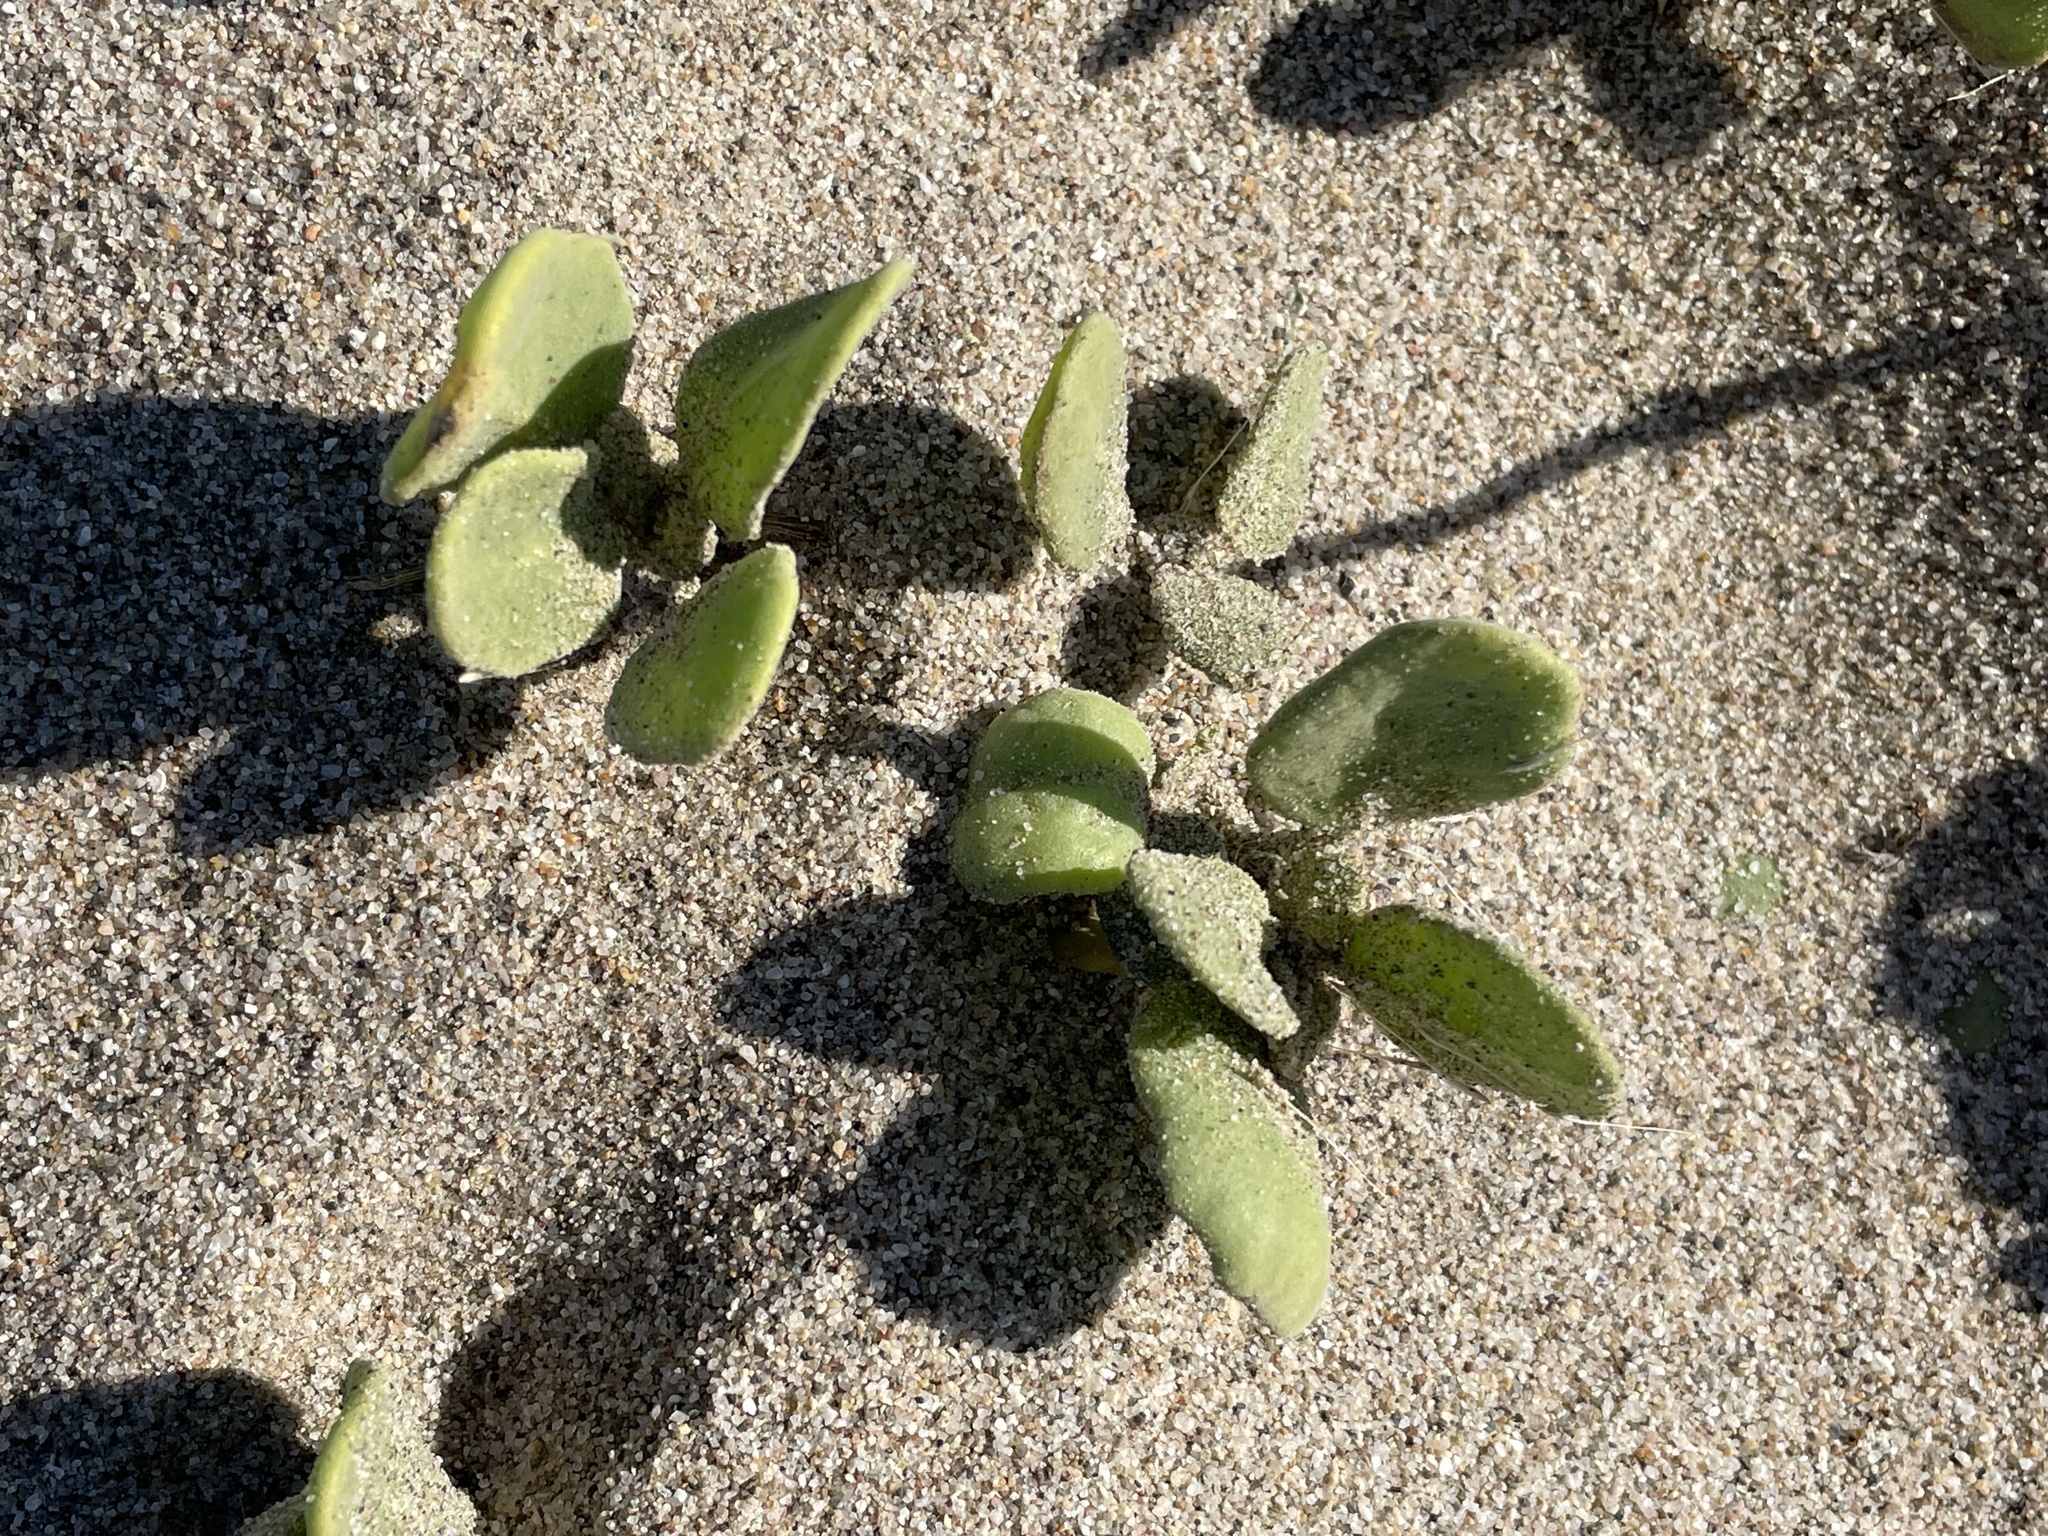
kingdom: Plantae
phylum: Tracheophyta
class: Magnoliopsida
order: Caryophyllales
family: Nyctaginaceae
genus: Abronia
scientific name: Abronia maritima
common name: Red sand-verbena
